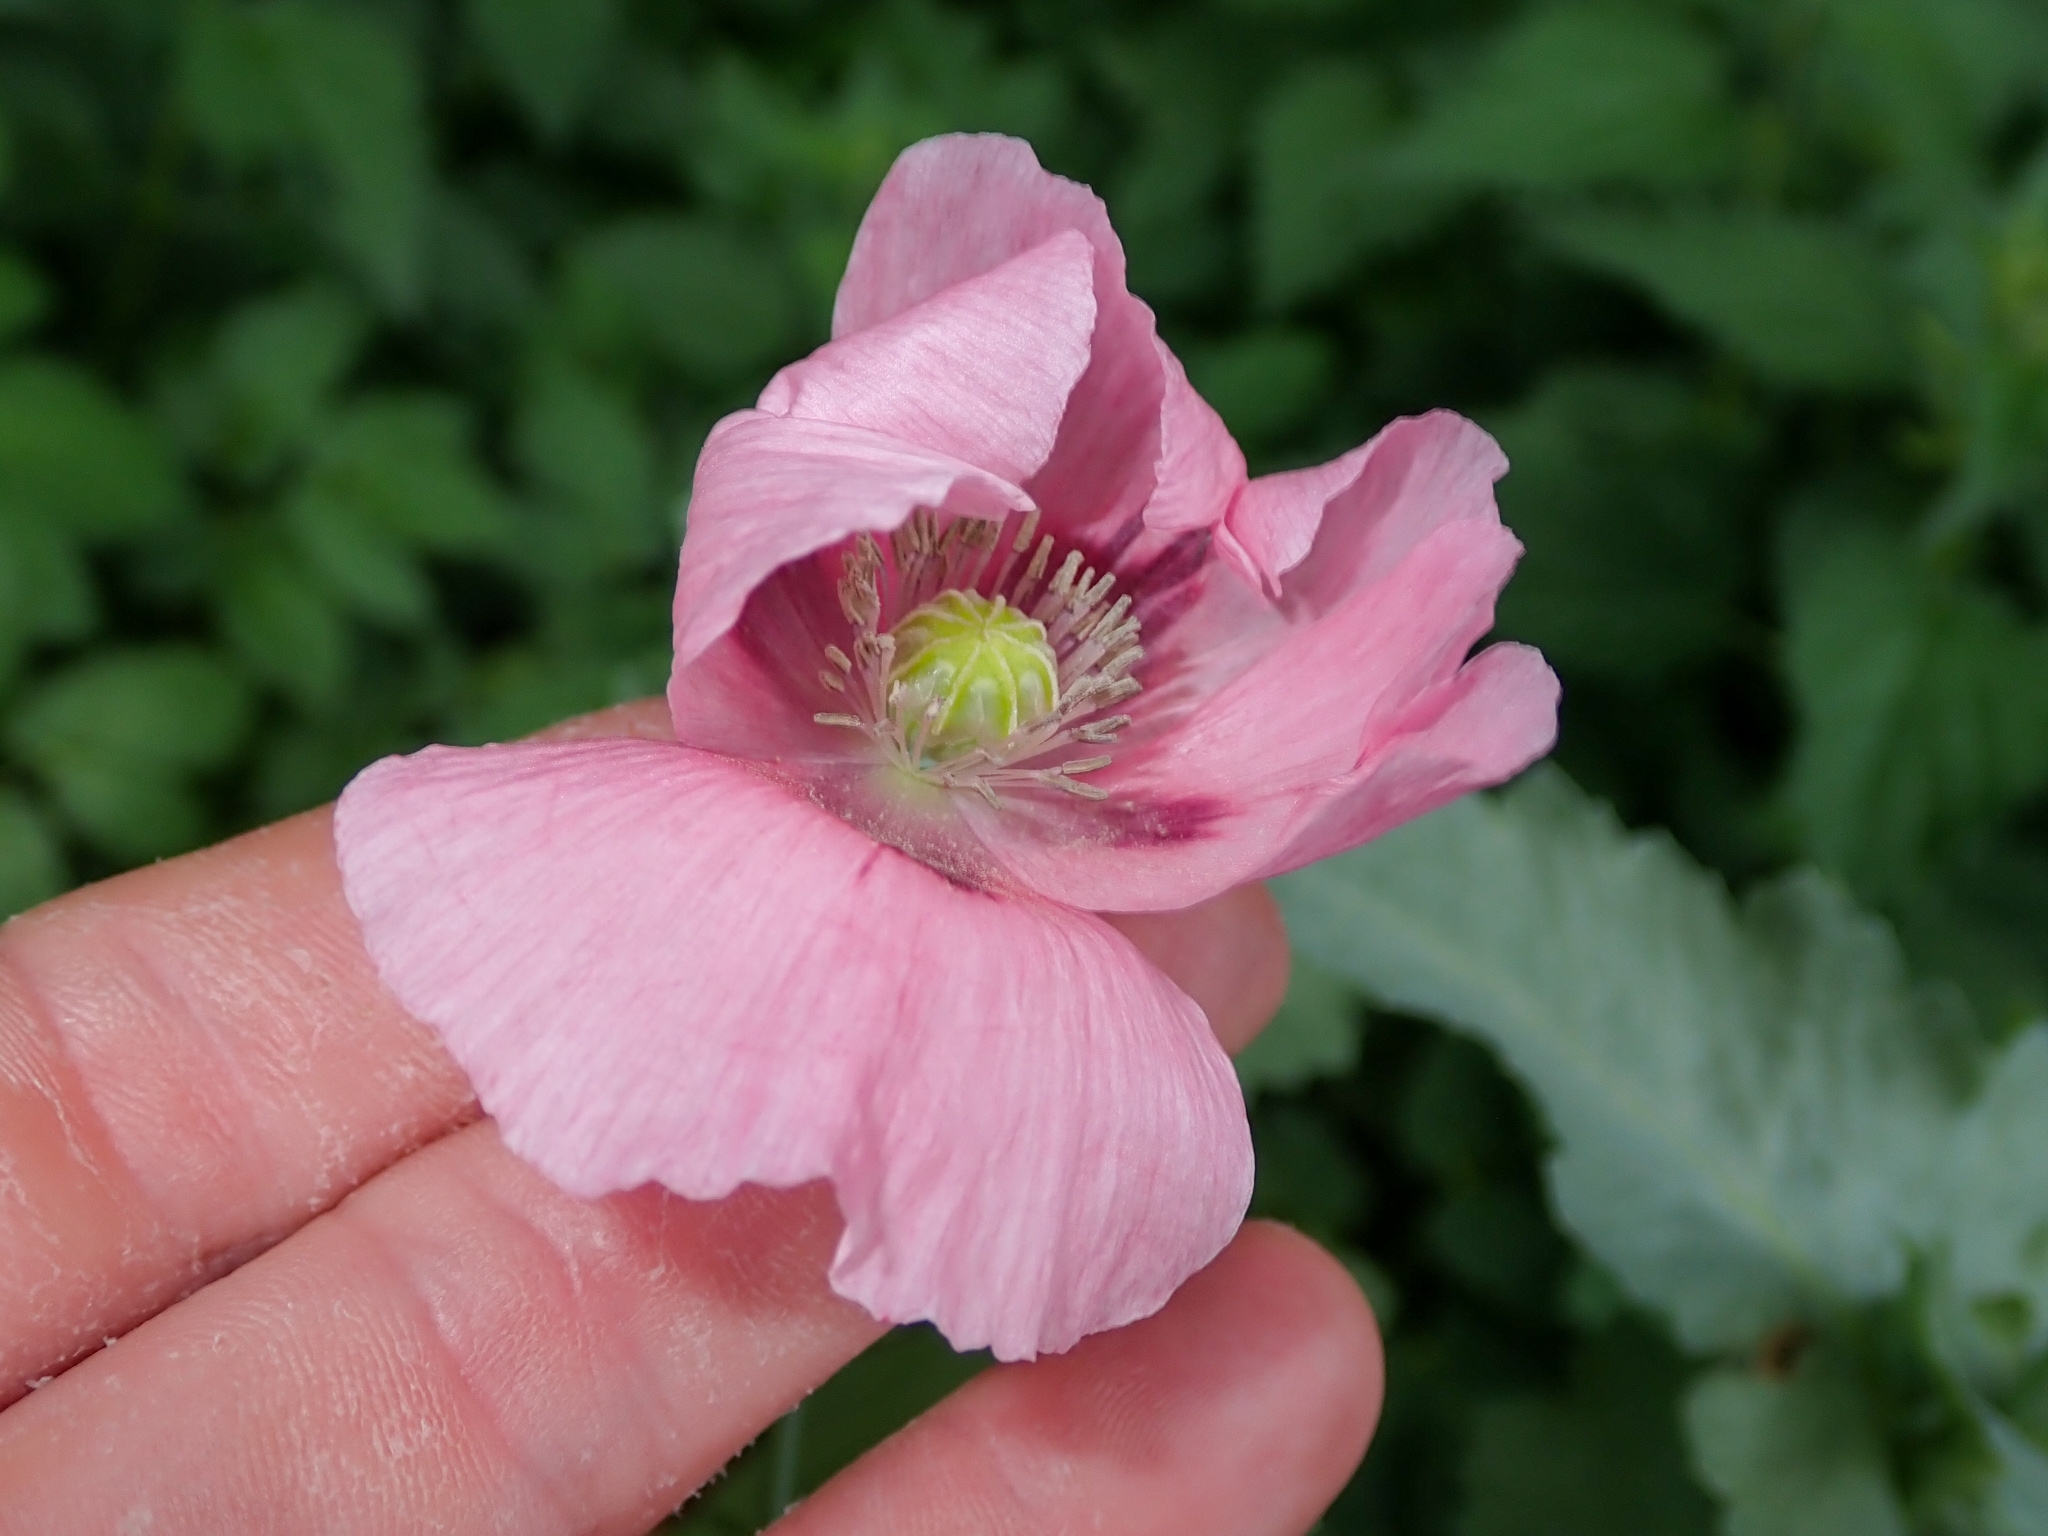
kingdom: Plantae
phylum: Tracheophyta
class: Magnoliopsida
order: Ranunculales
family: Papaveraceae
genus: Papaver
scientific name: Papaver somniferum
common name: Opium poppy
